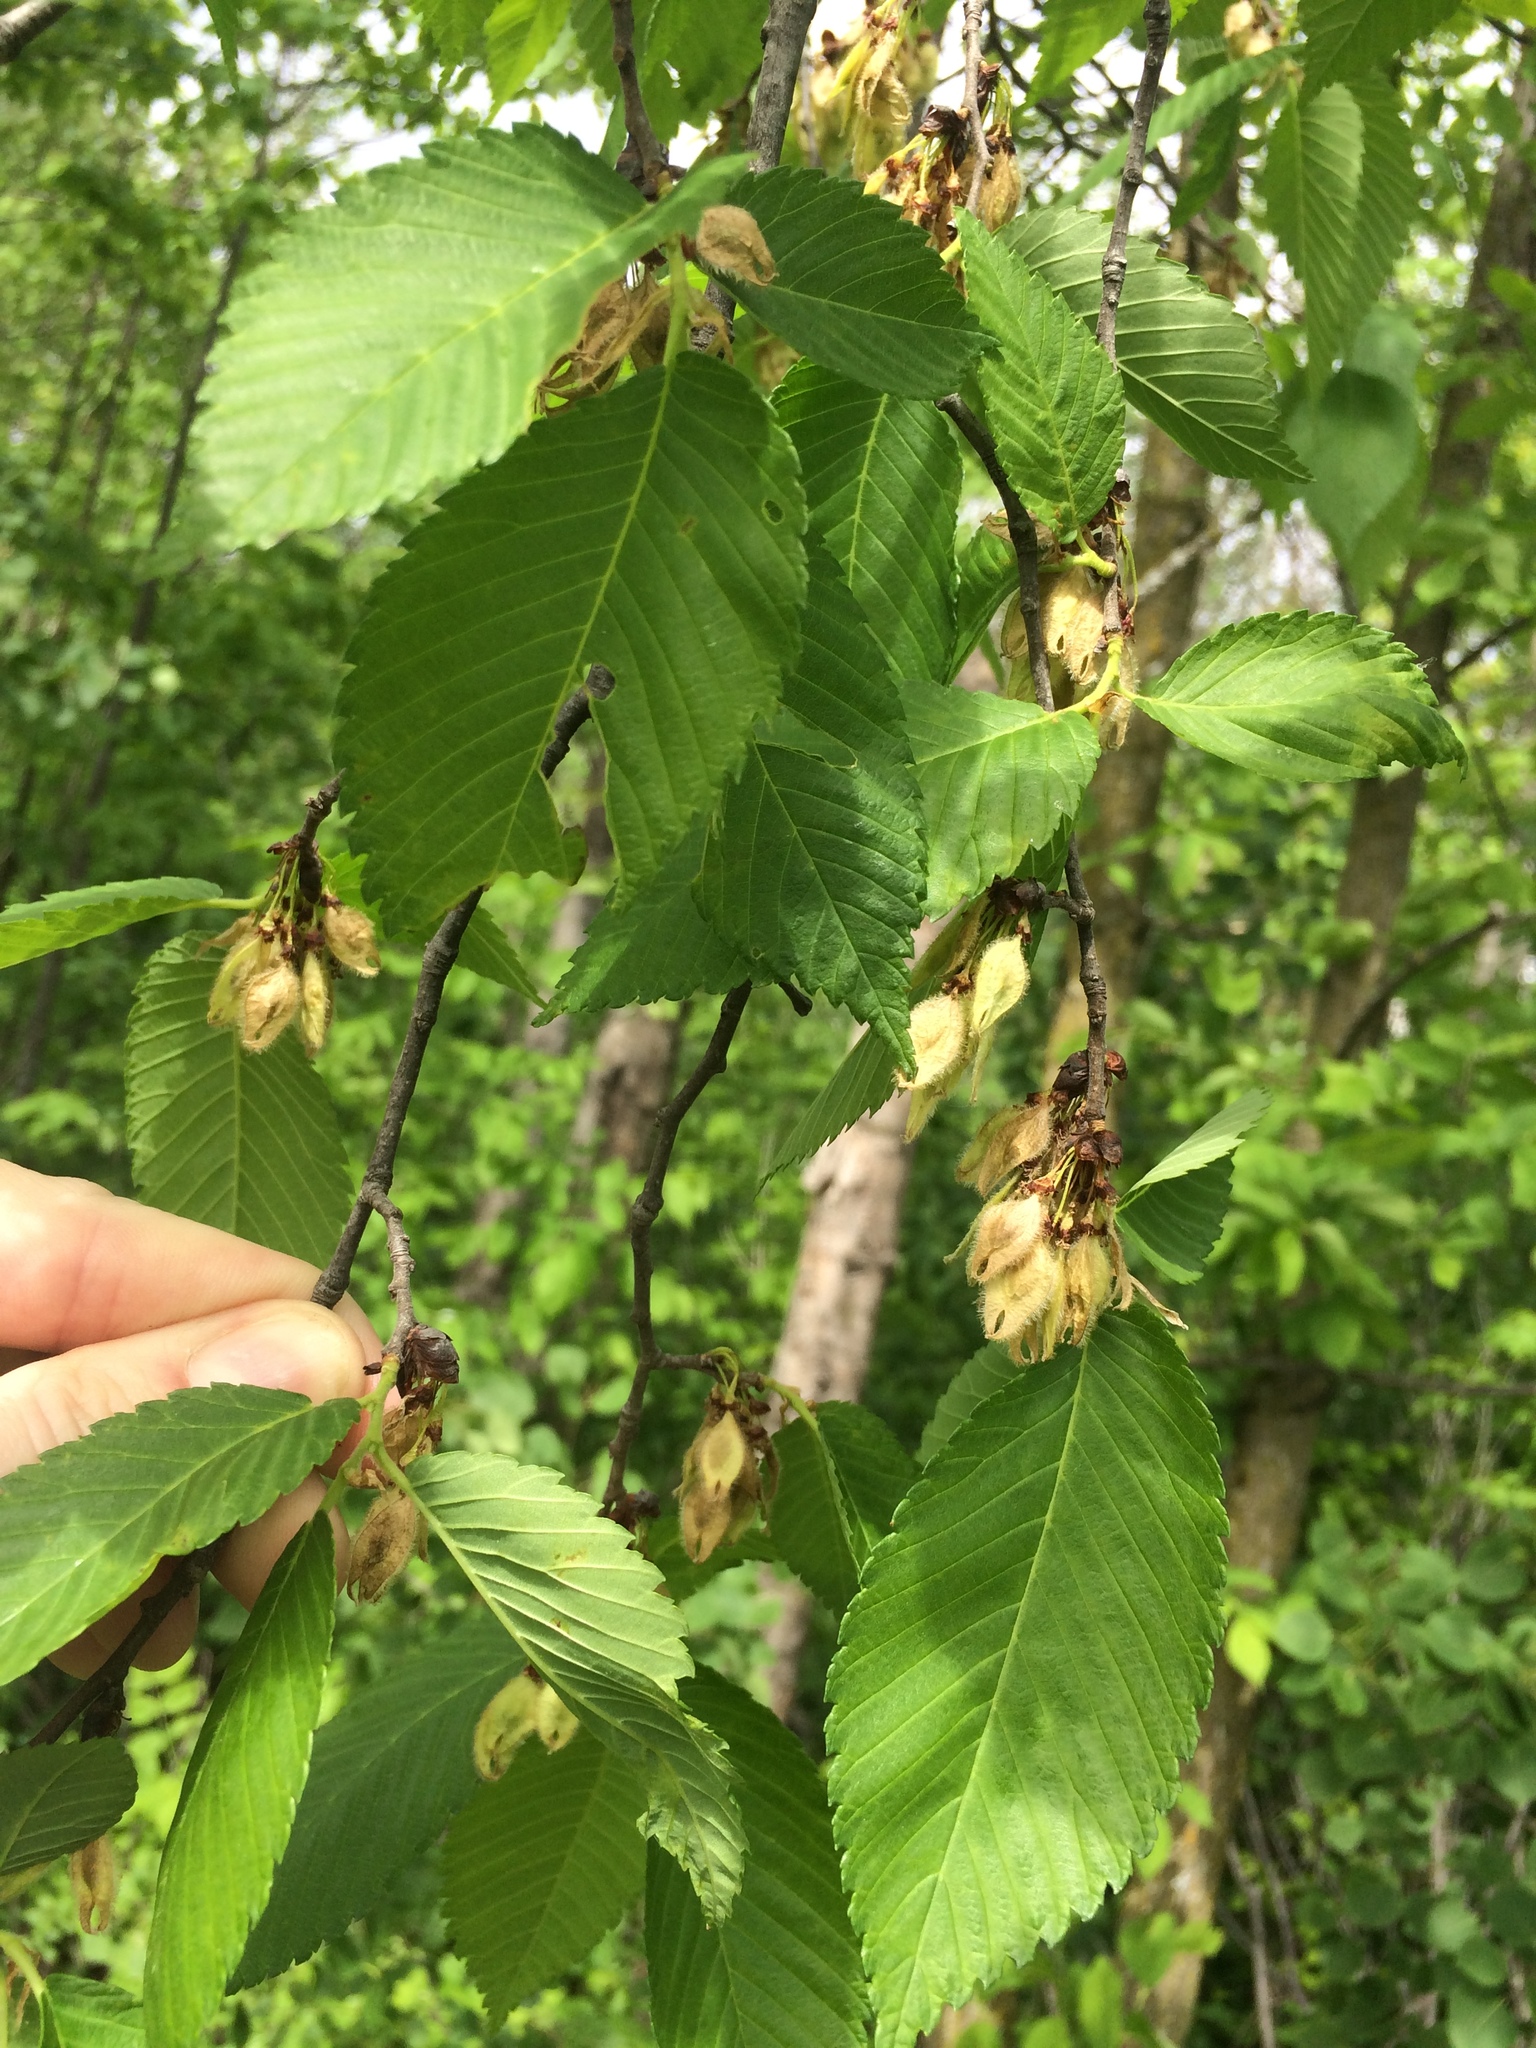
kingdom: Plantae
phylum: Tracheophyta
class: Magnoliopsida
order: Rosales
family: Ulmaceae
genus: Ulmus
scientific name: Ulmus americana
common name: American elm
